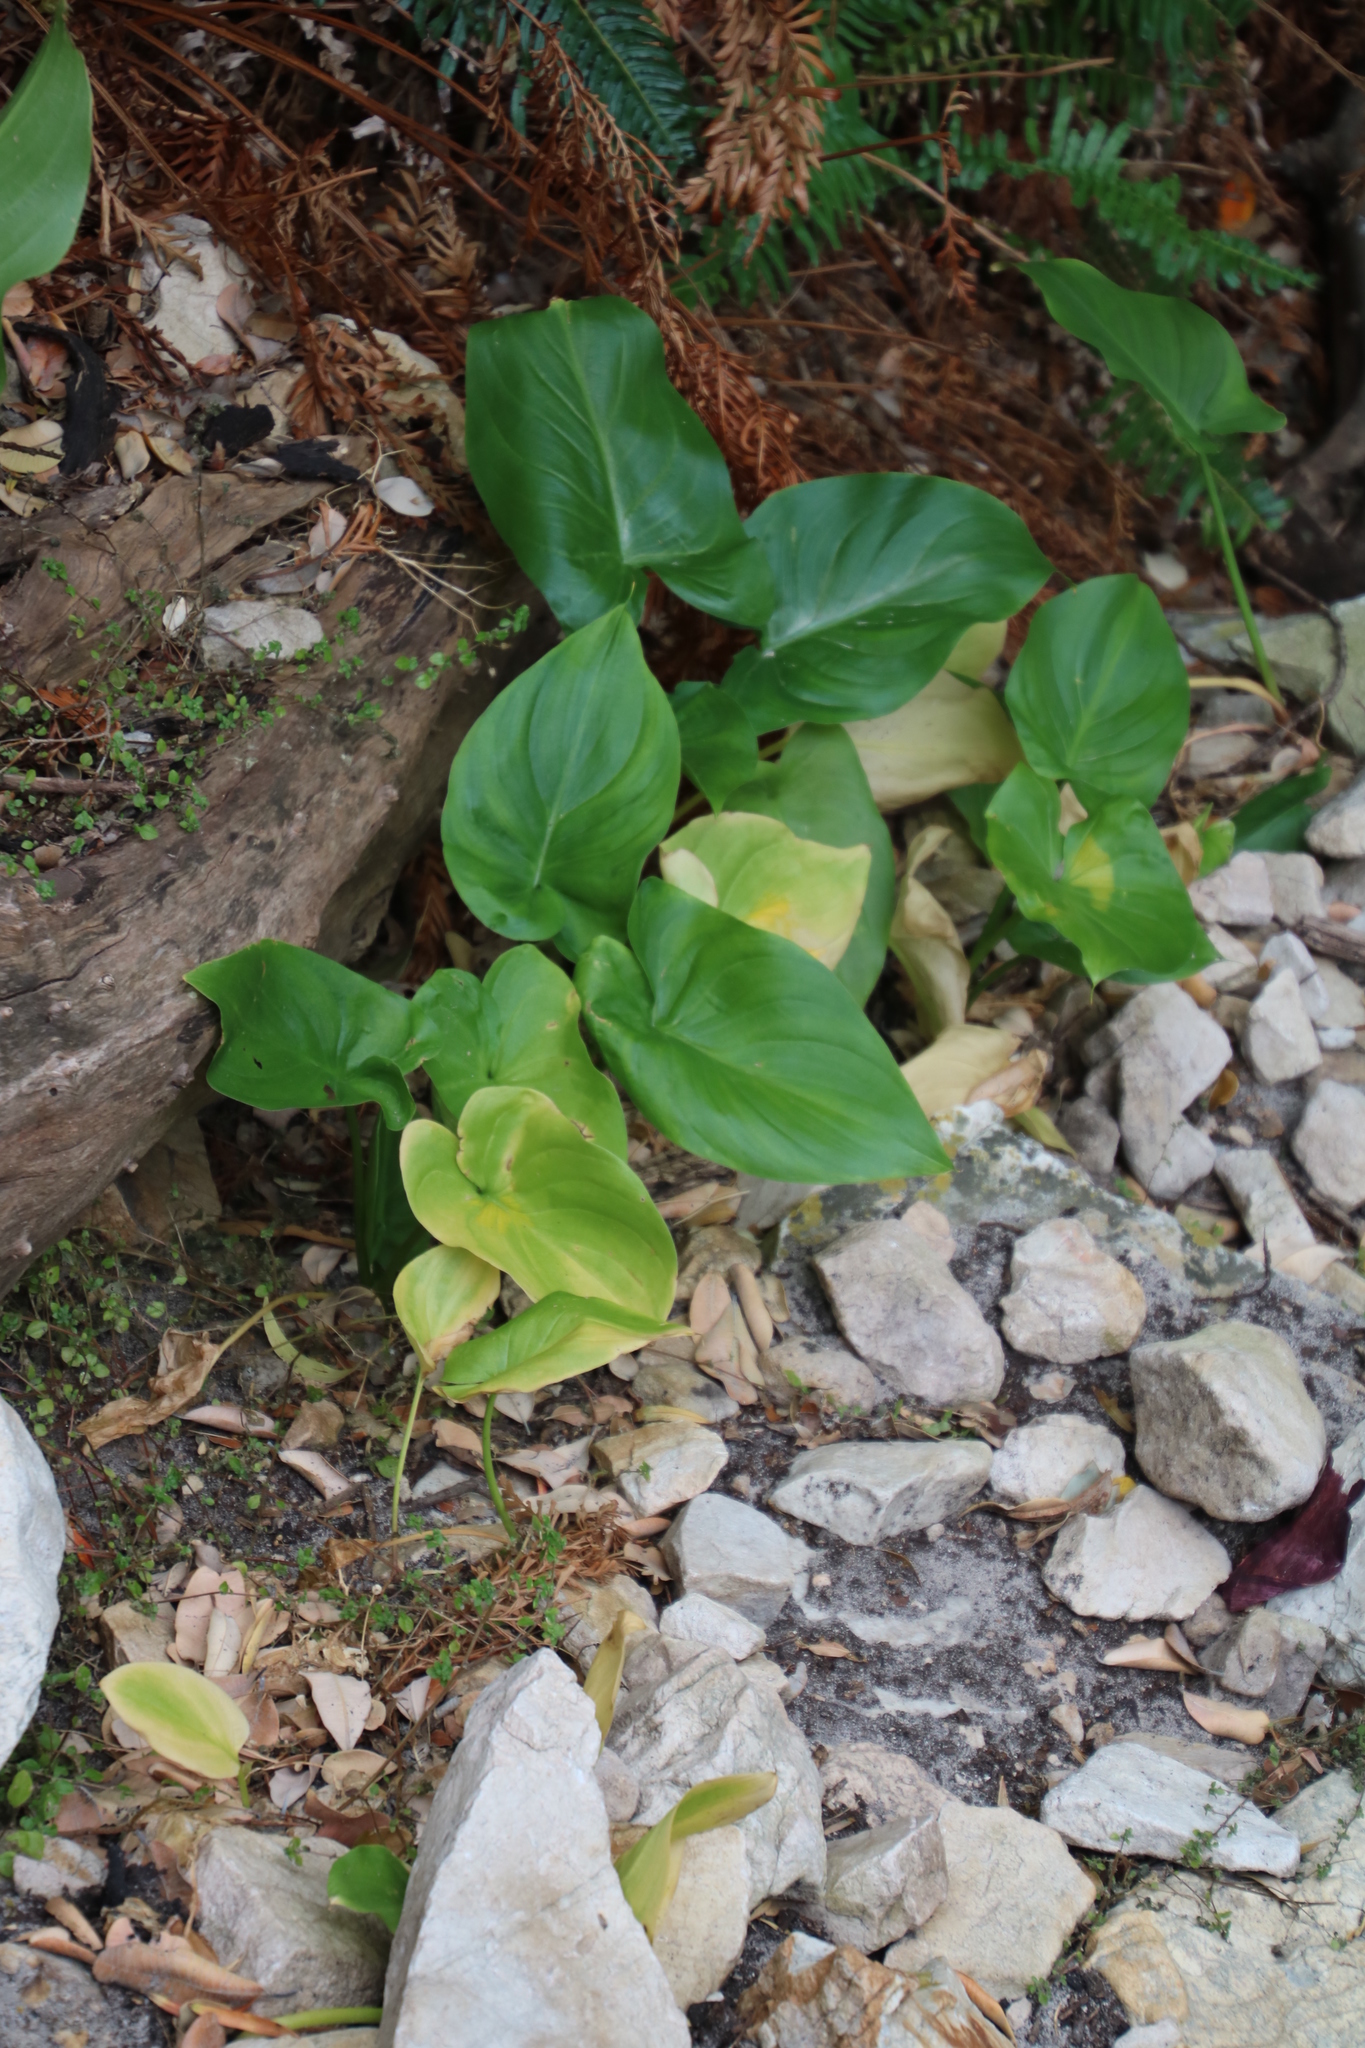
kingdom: Plantae
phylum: Tracheophyta
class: Liliopsida
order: Alismatales
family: Araceae
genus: Zantedeschia
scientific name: Zantedeschia aethiopica
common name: Altar-lily
